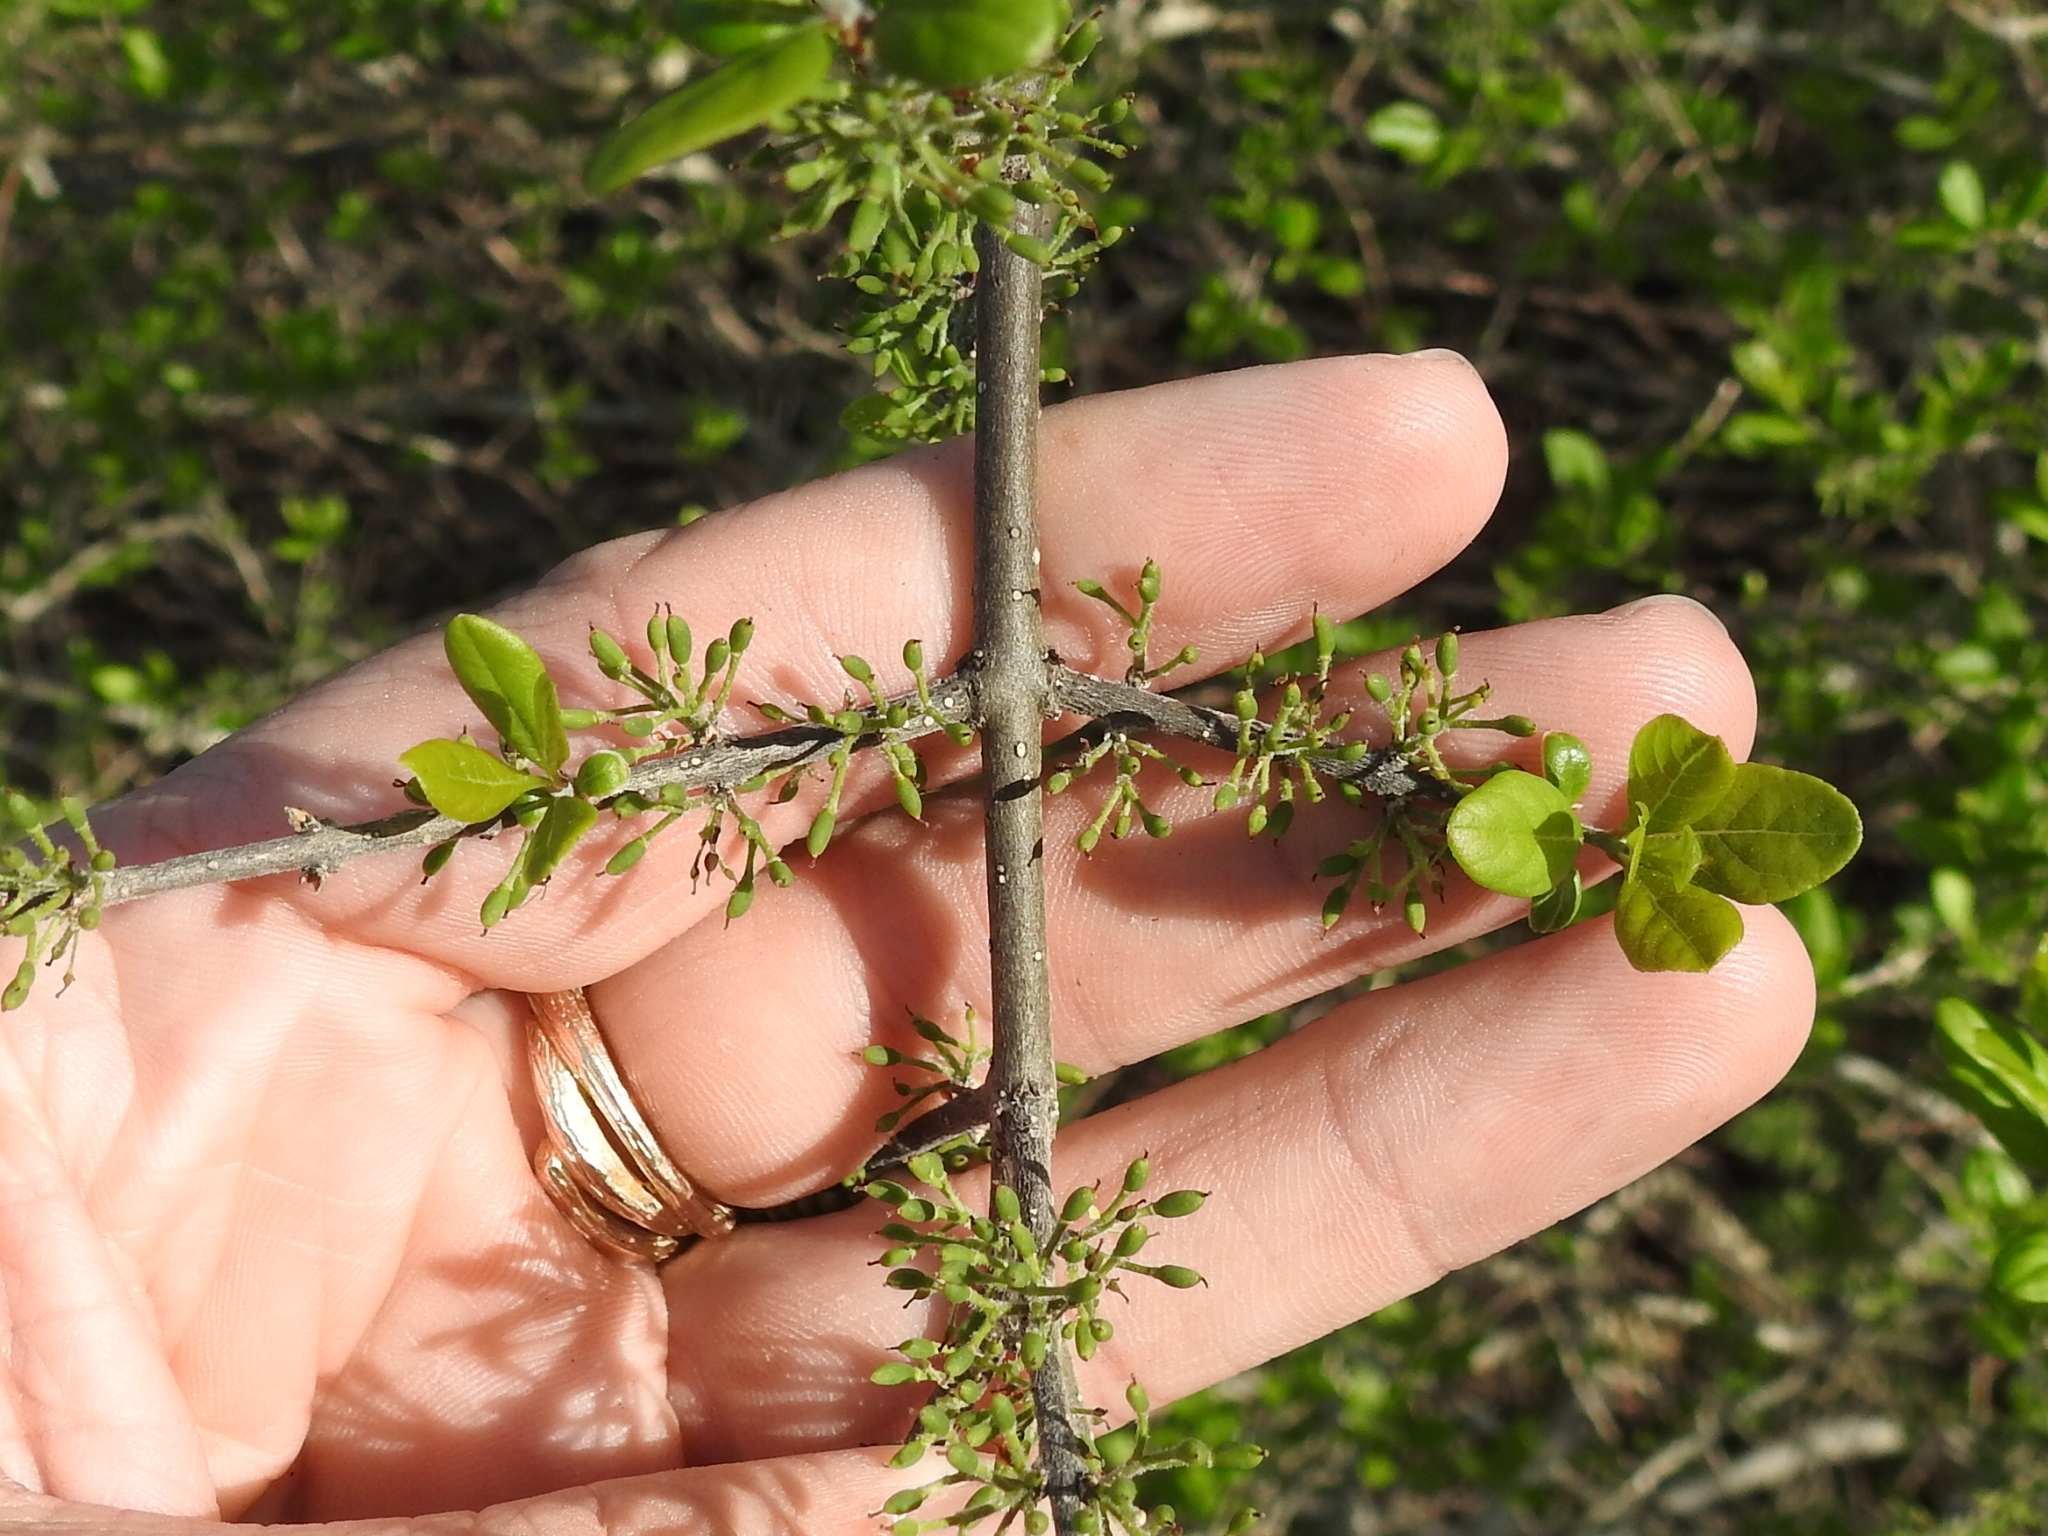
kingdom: Plantae
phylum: Tracheophyta
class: Magnoliopsida
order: Lamiales
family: Oleaceae
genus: Forestiera
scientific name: Forestiera pubescens
